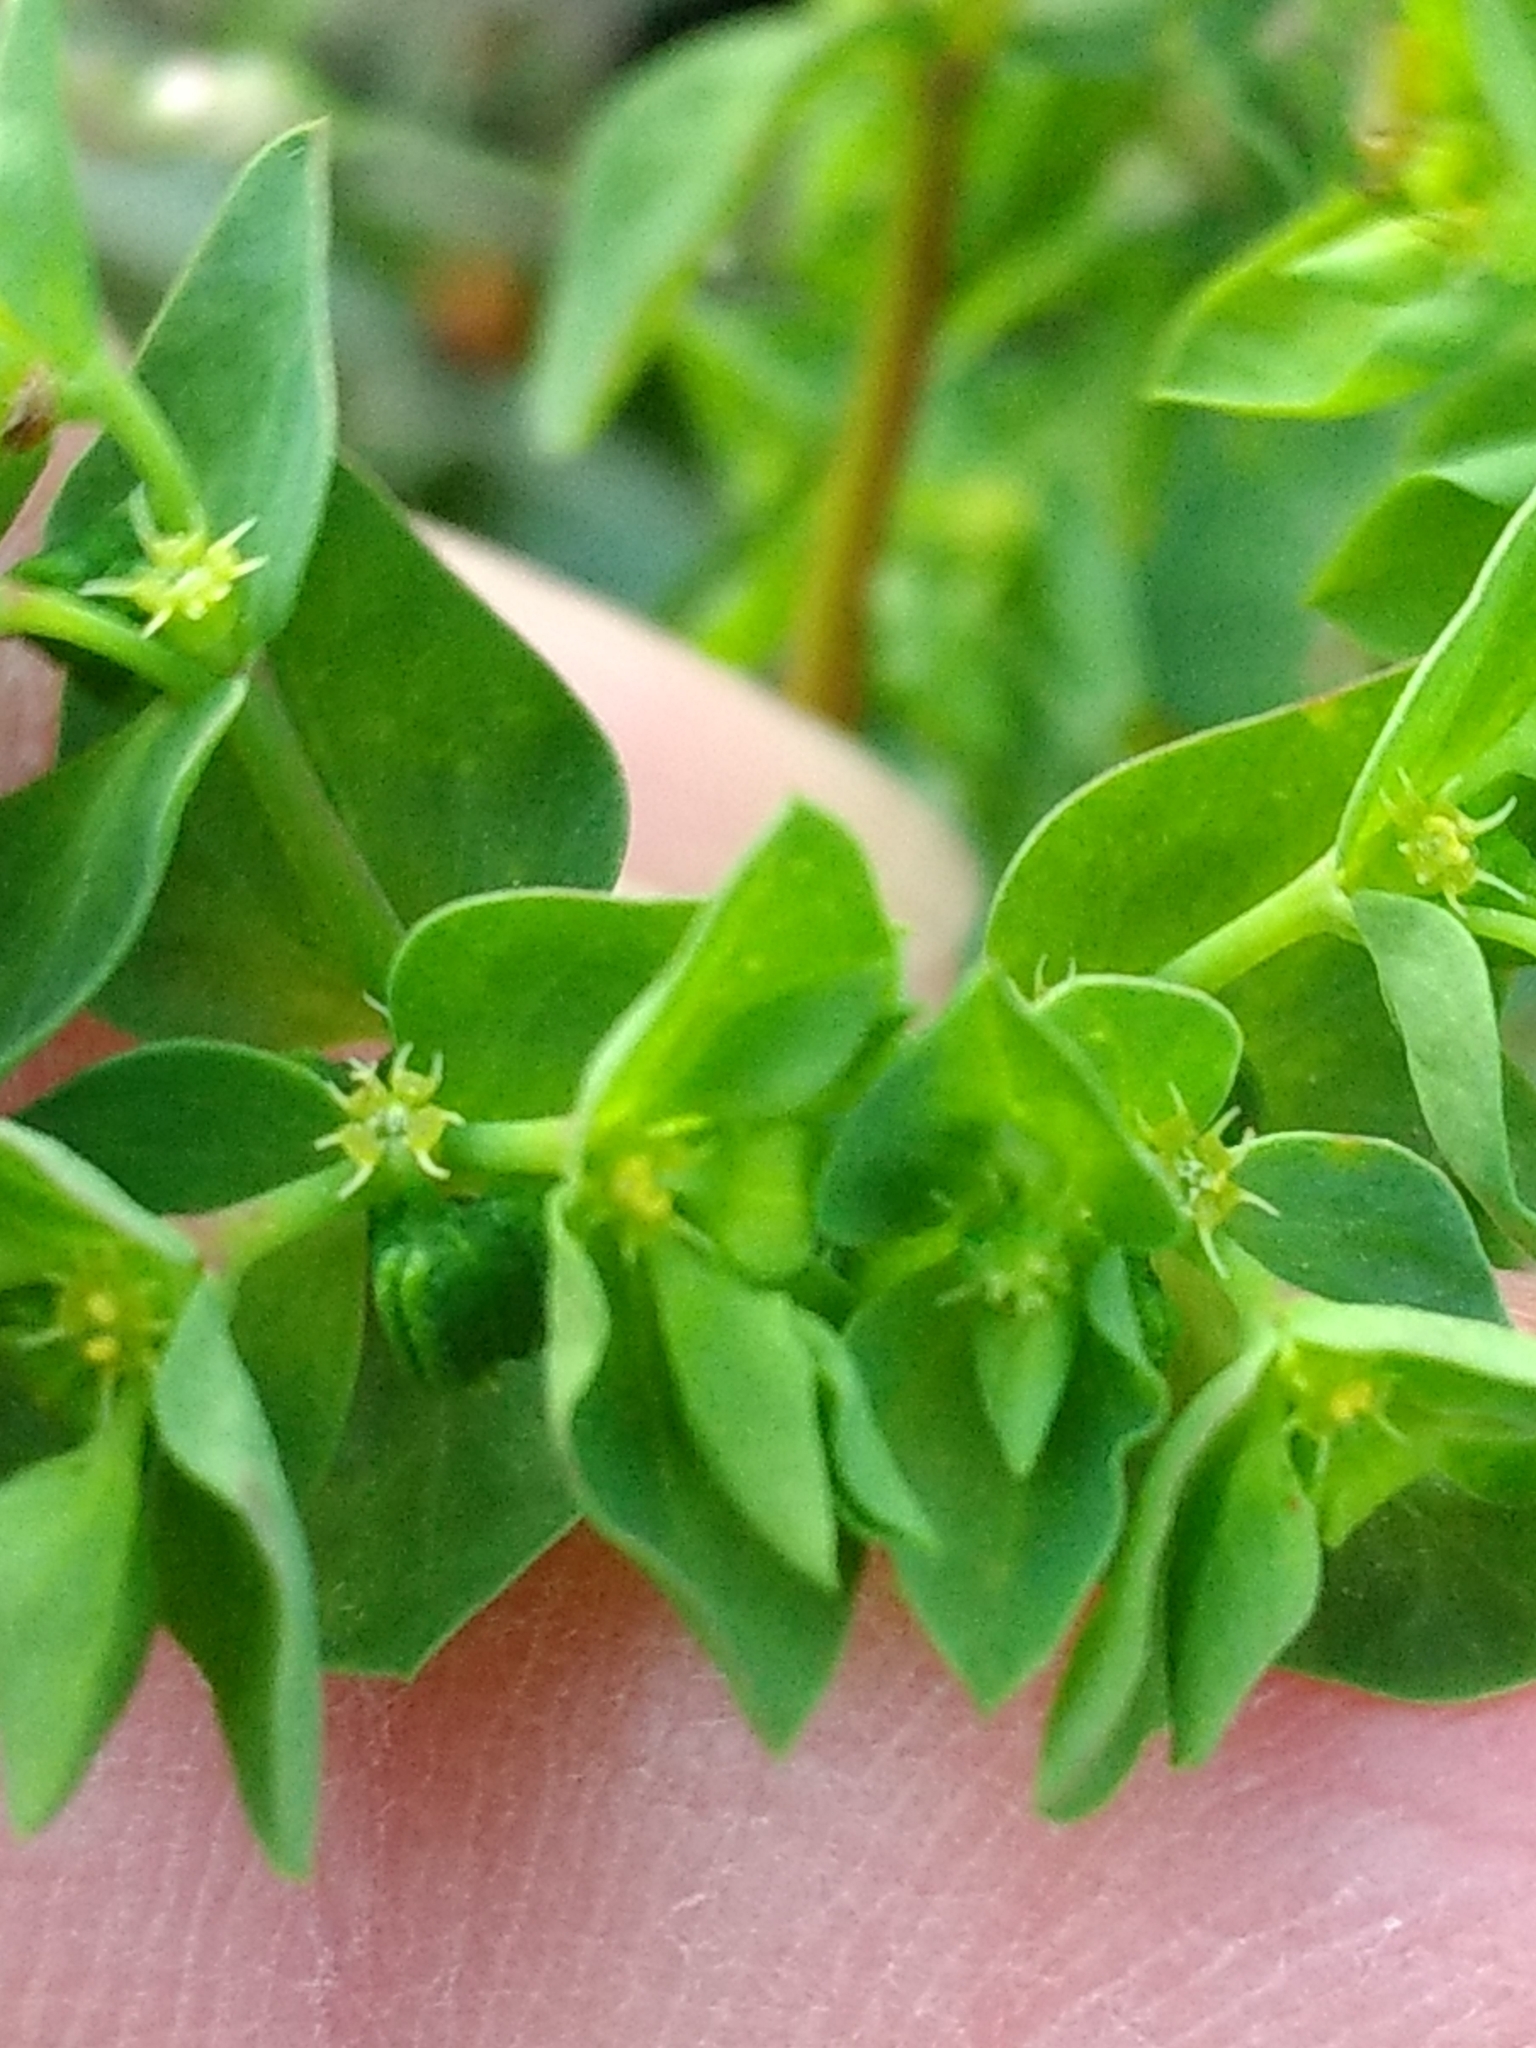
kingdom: Plantae
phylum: Tracheophyta
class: Magnoliopsida
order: Malpighiales
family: Euphorbiaceae
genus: Euphorbia
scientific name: Euphorbia peplus
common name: Petty spurge
